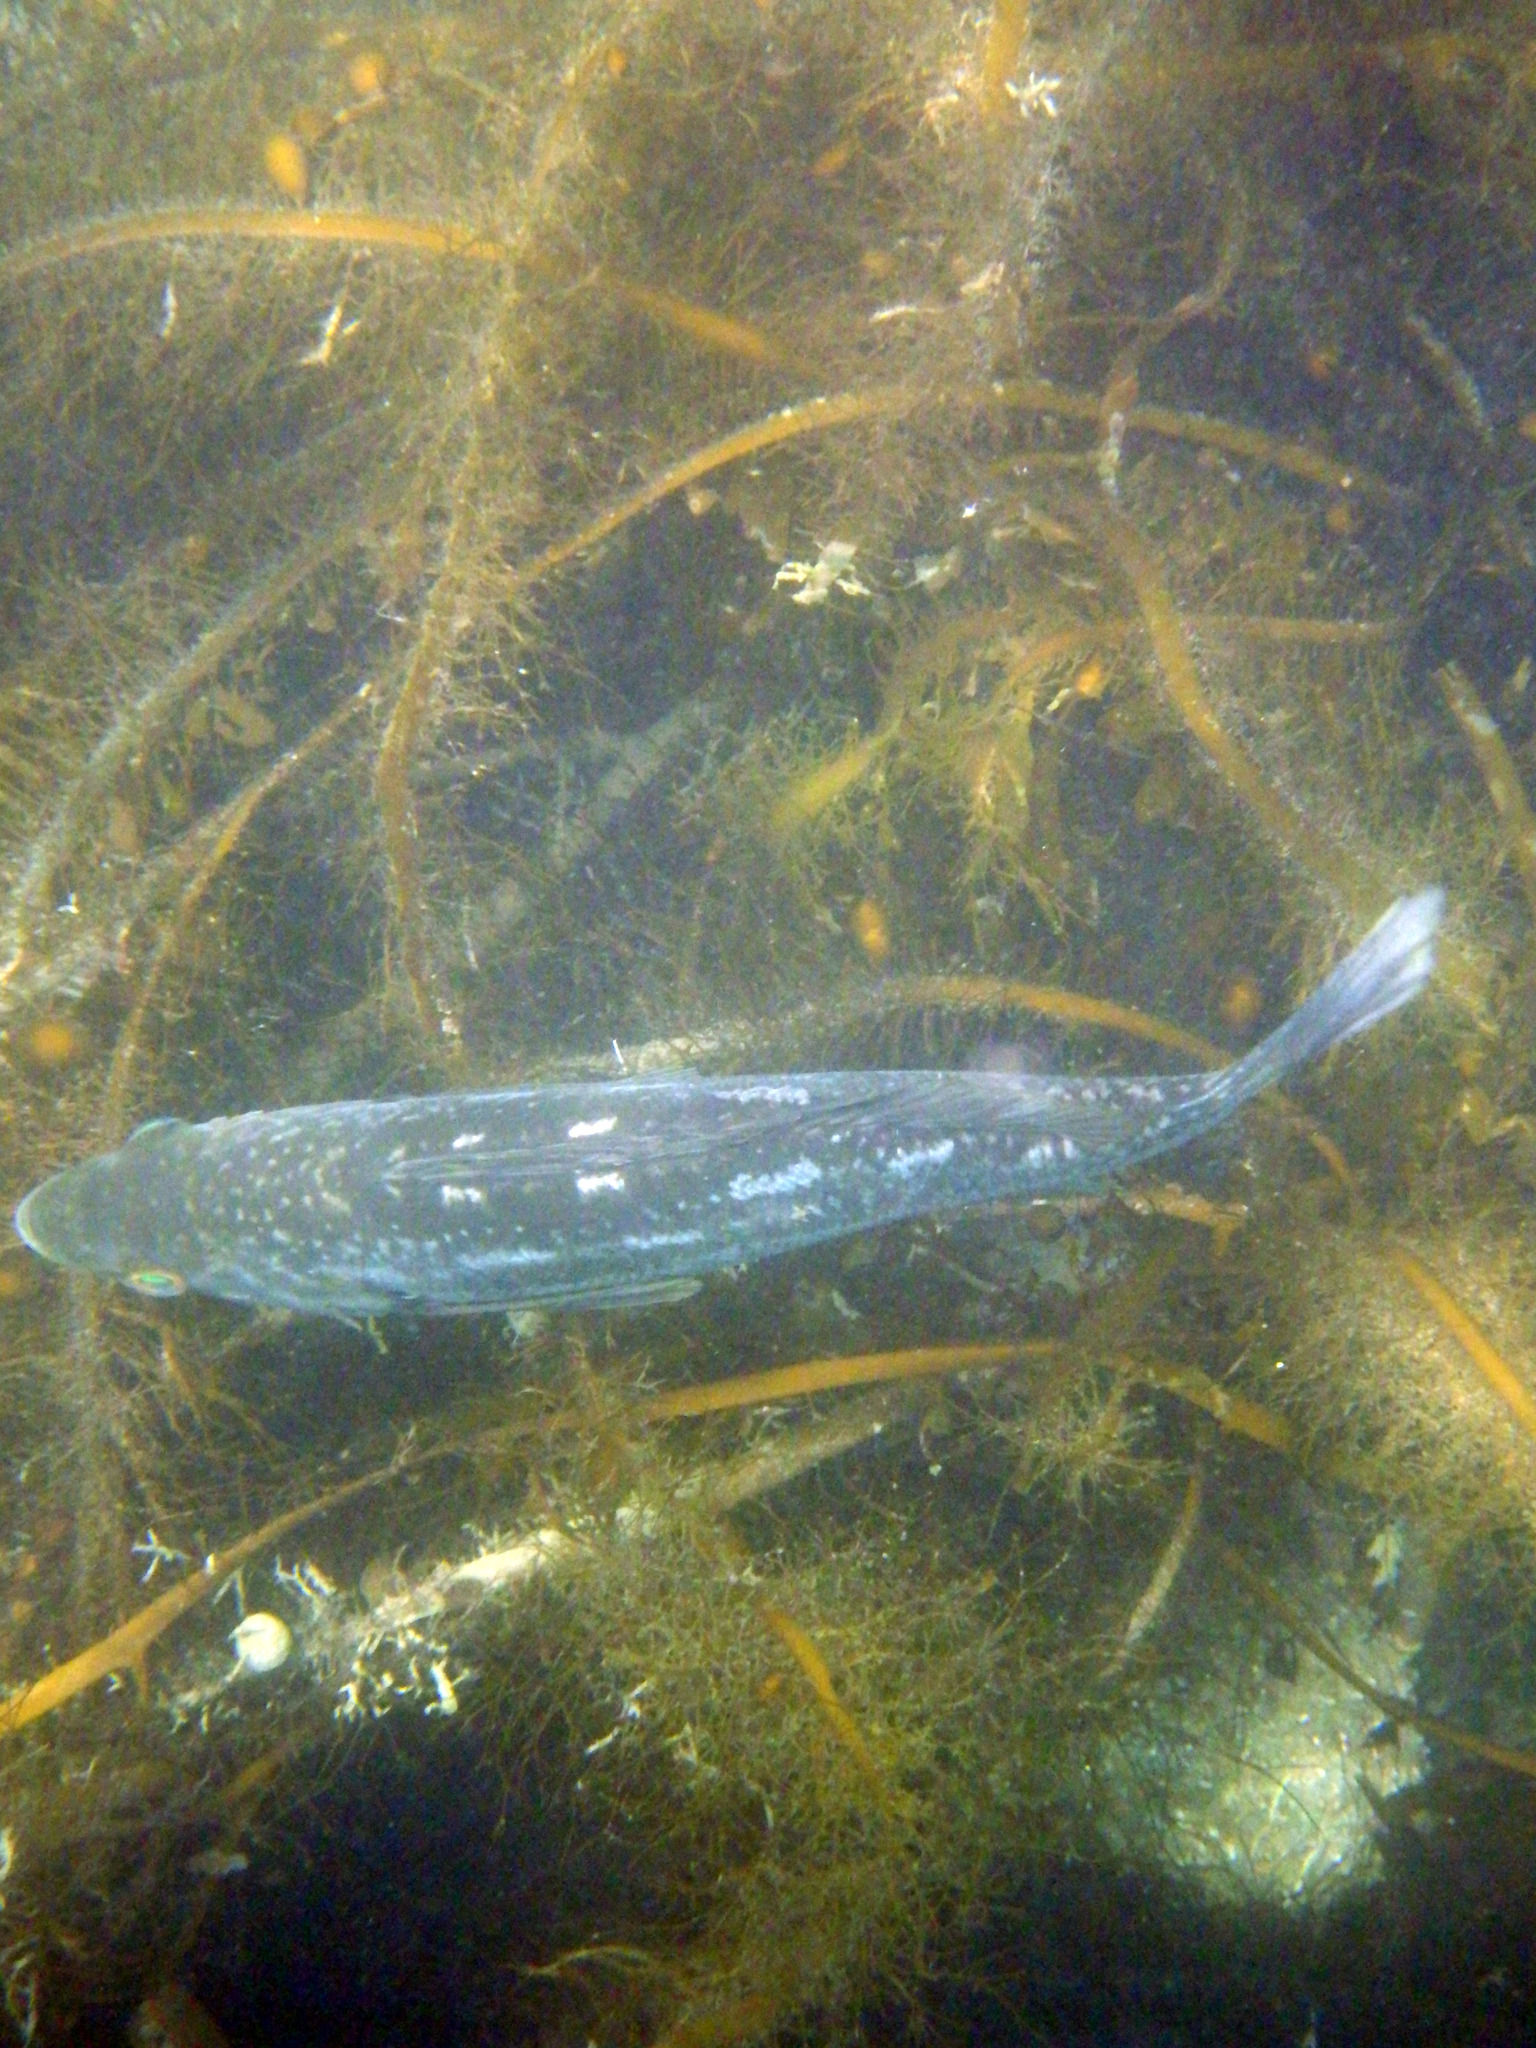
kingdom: Animalia
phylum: Chordata
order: Perciformes
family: Serranidae
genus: Paralabrax
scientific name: Paralabrax clathratus
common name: Kelp bass
